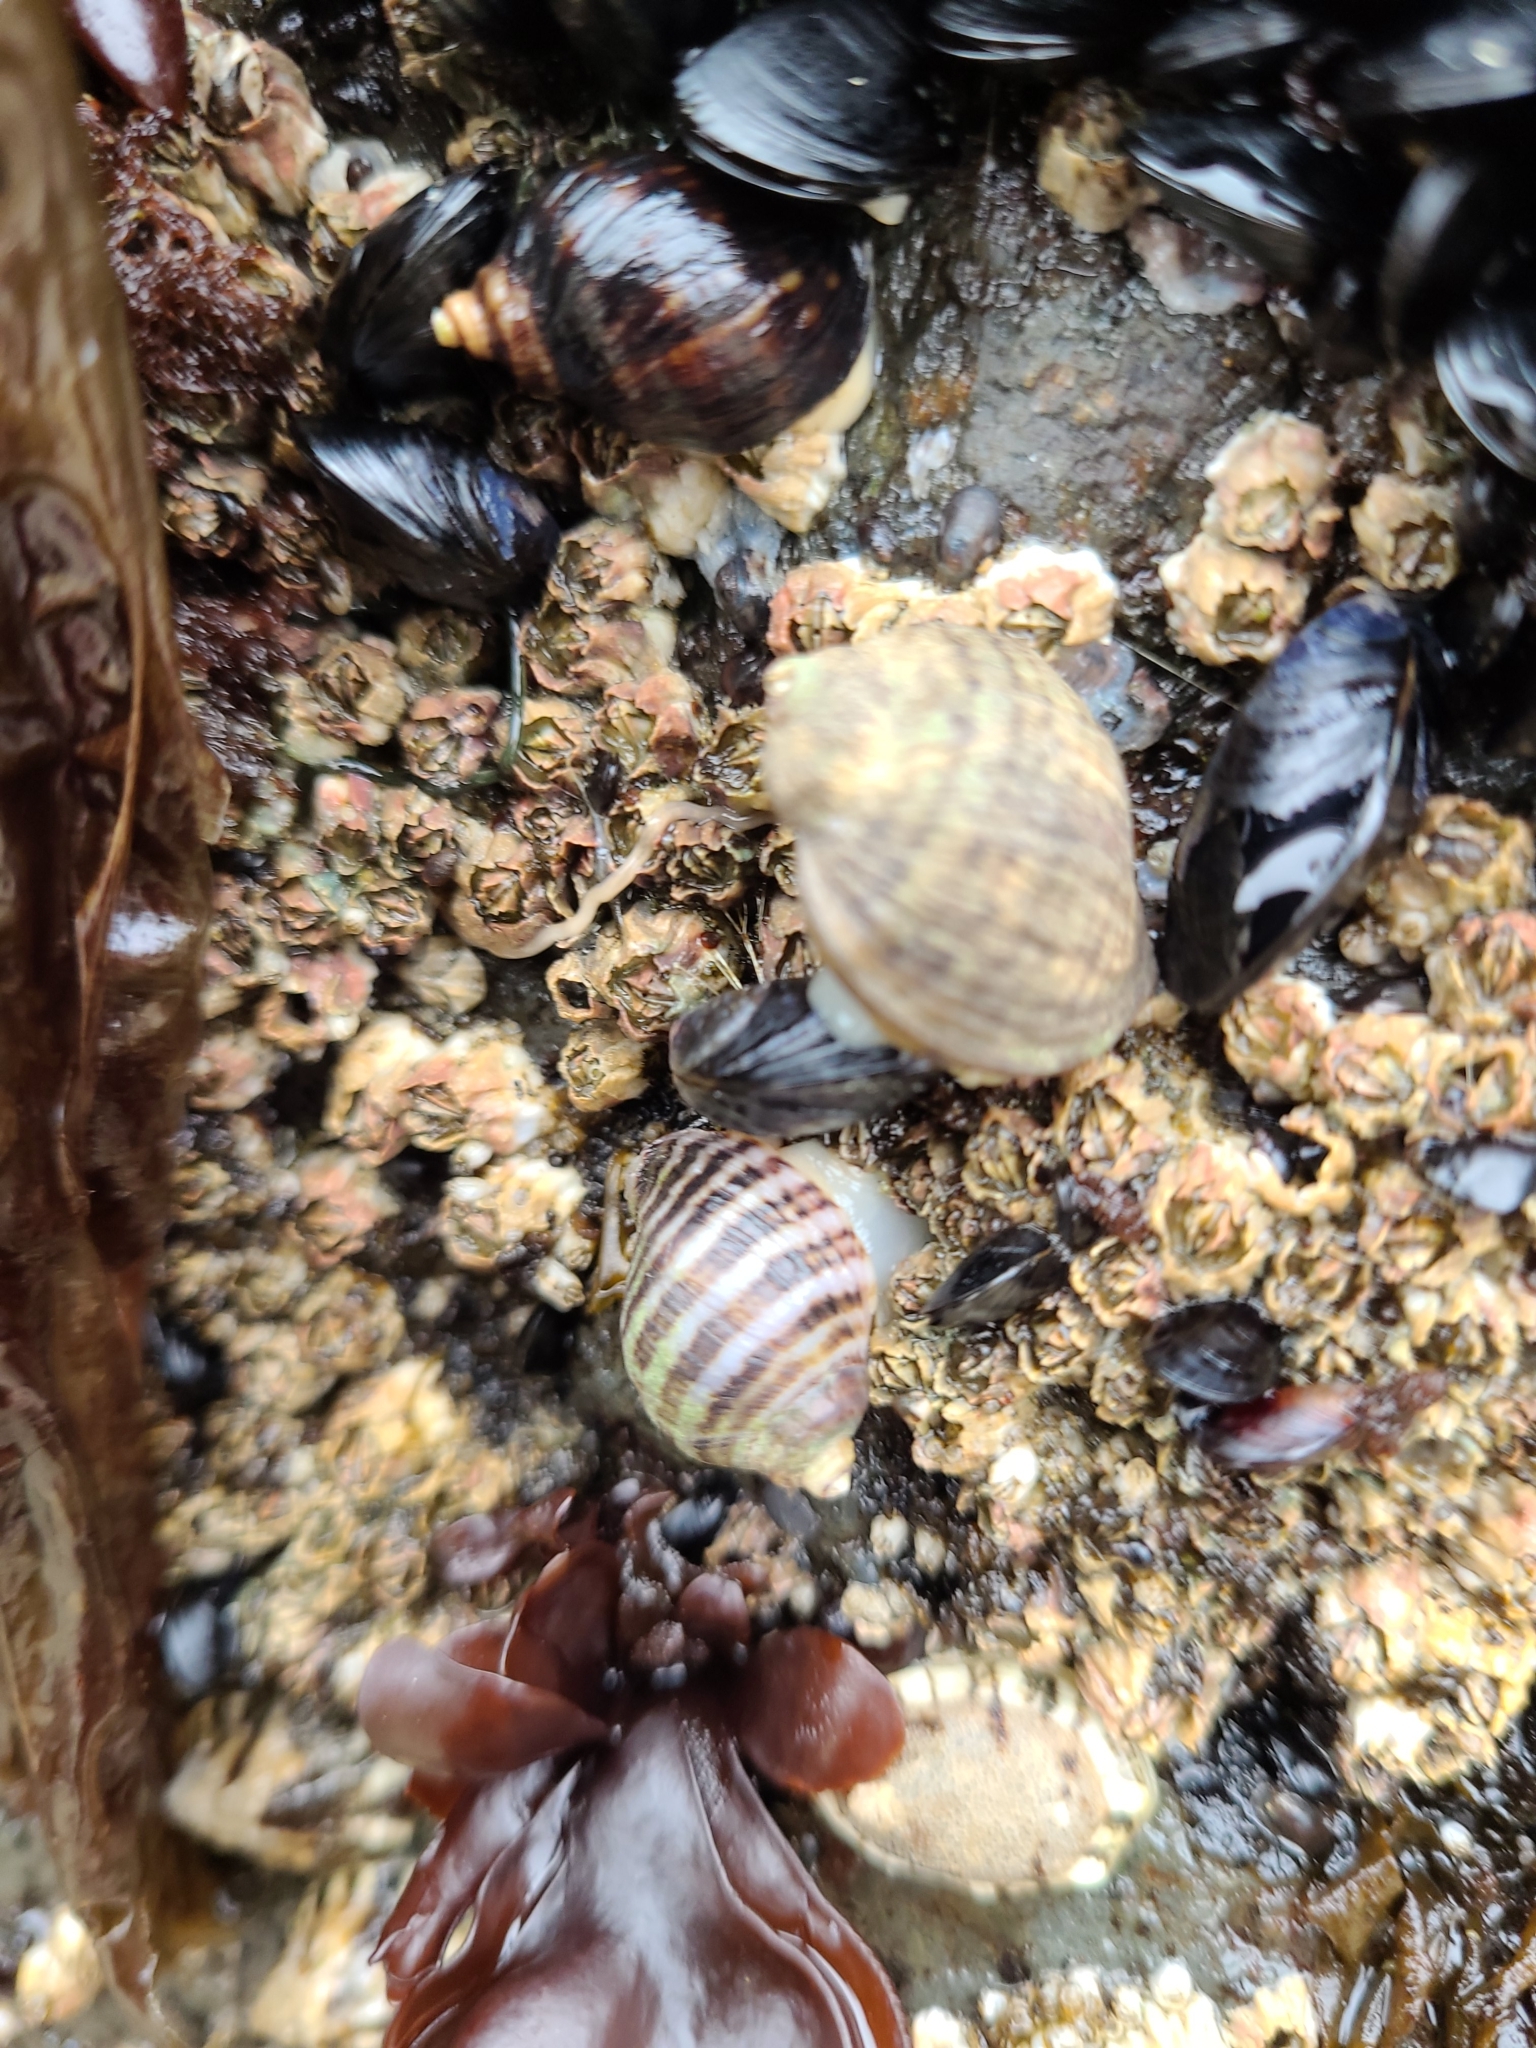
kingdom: Animalia
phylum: Mollusca
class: Gastropoda
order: Neogastropoda
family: Muricidae
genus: Nucella
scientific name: Nucella ostrina
